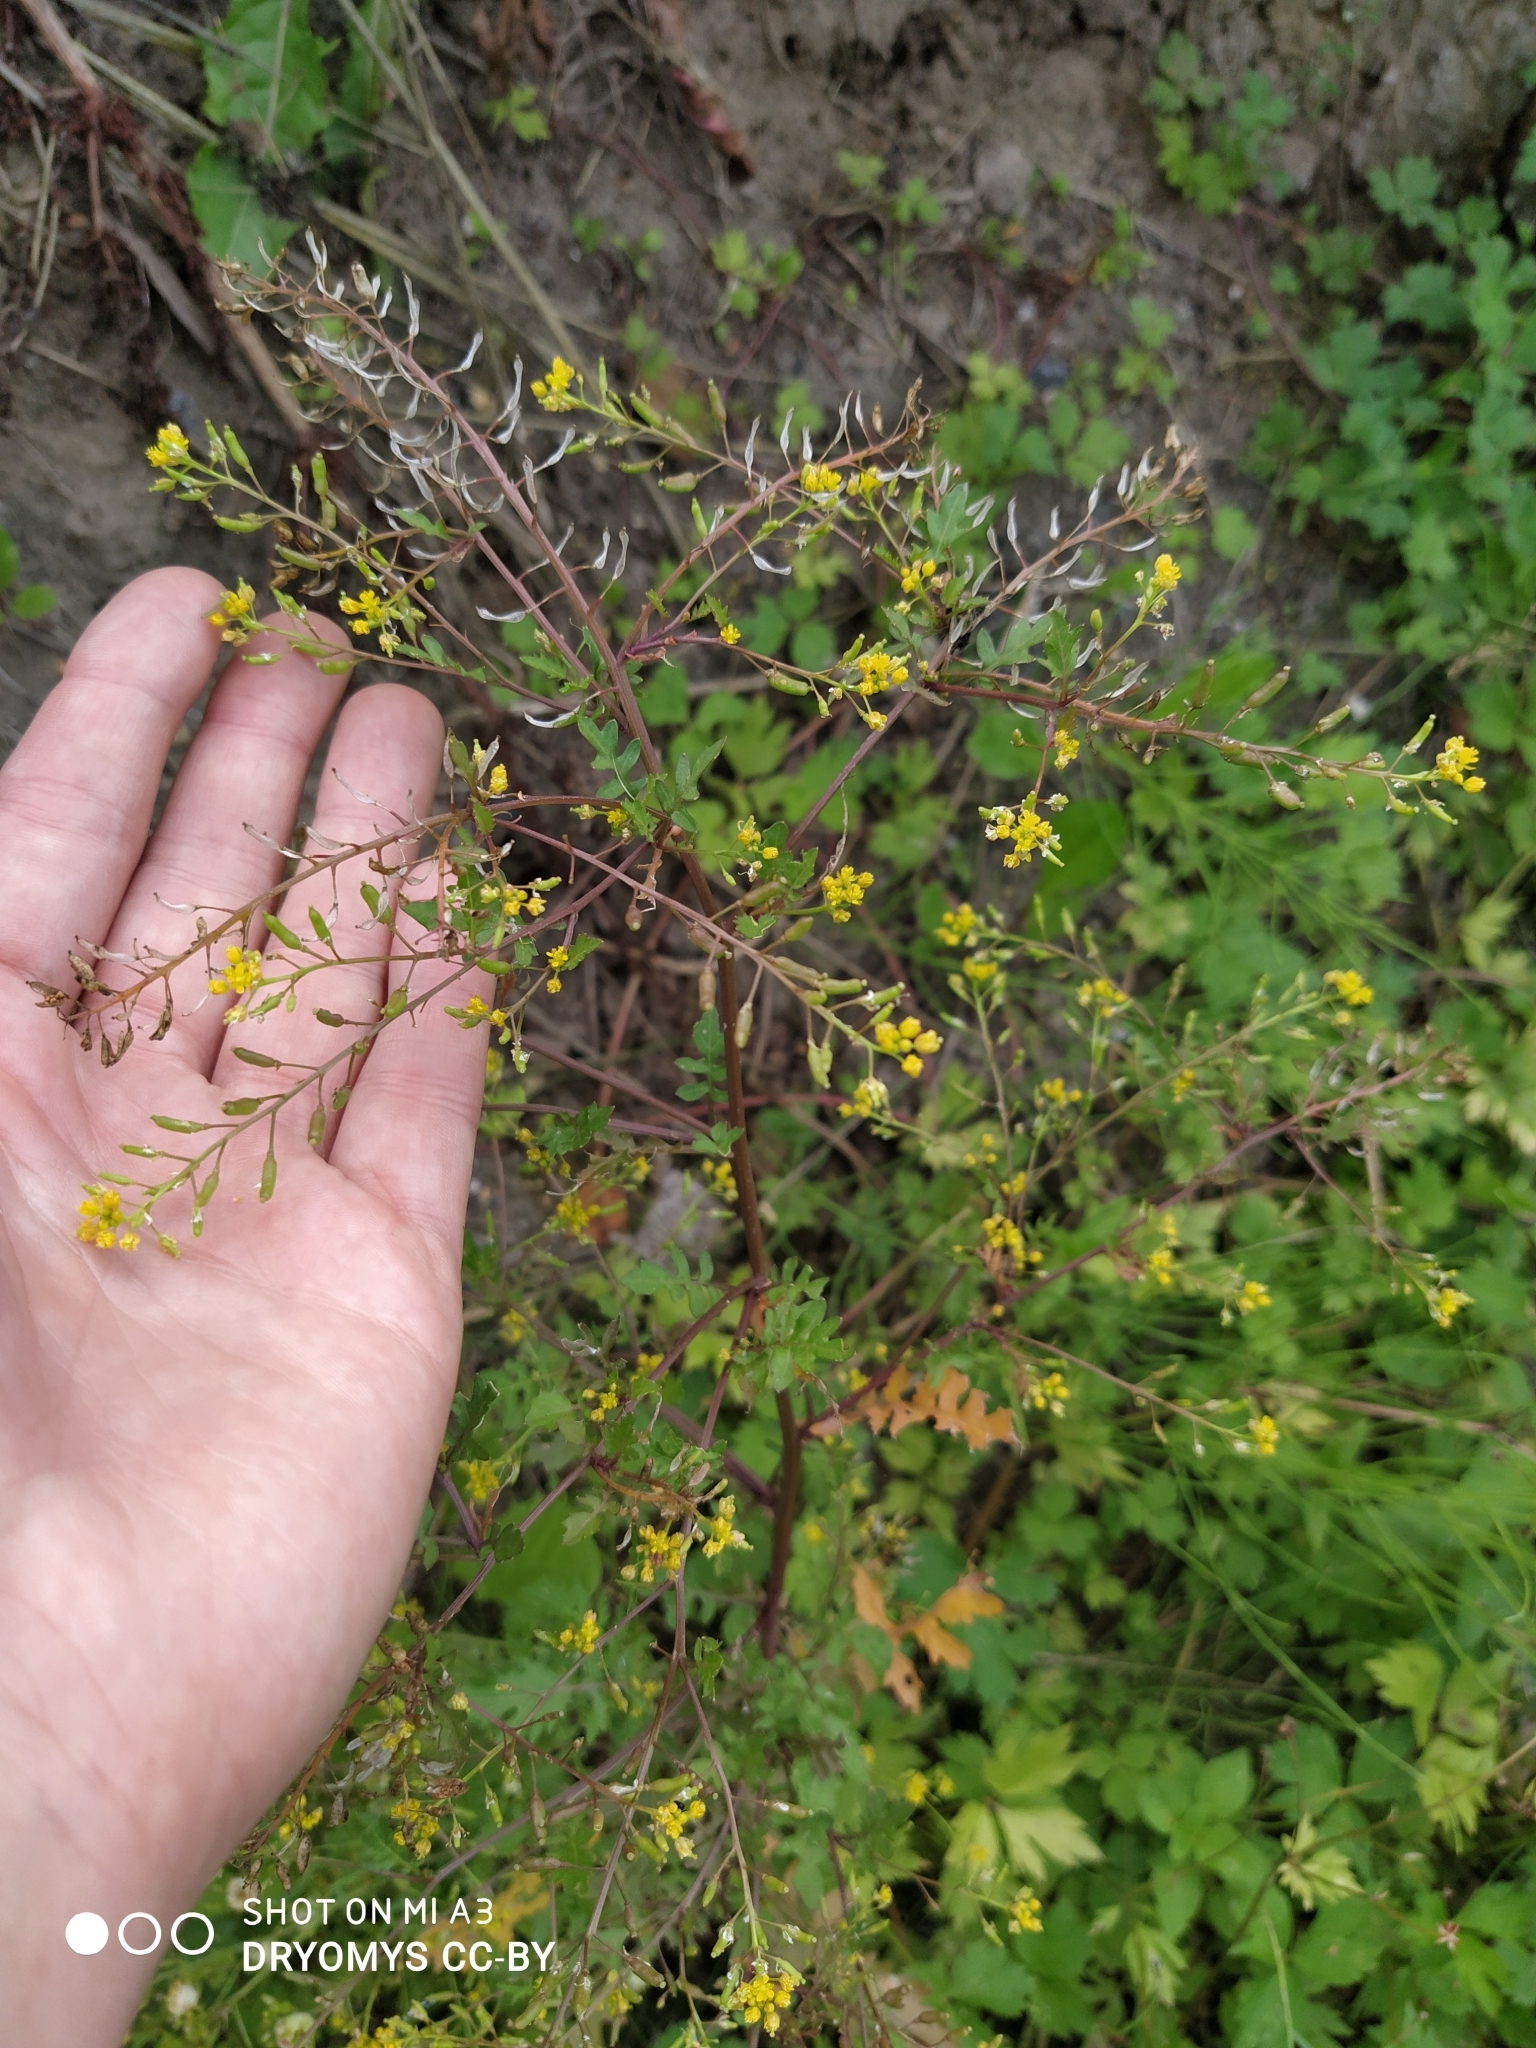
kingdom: Plantae
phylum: Tracheophyta
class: Magnoliopsida
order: Brassicales
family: Brassicaceae
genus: Rorippa
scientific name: Rorippa palustris
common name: Marsh yellow-cress
